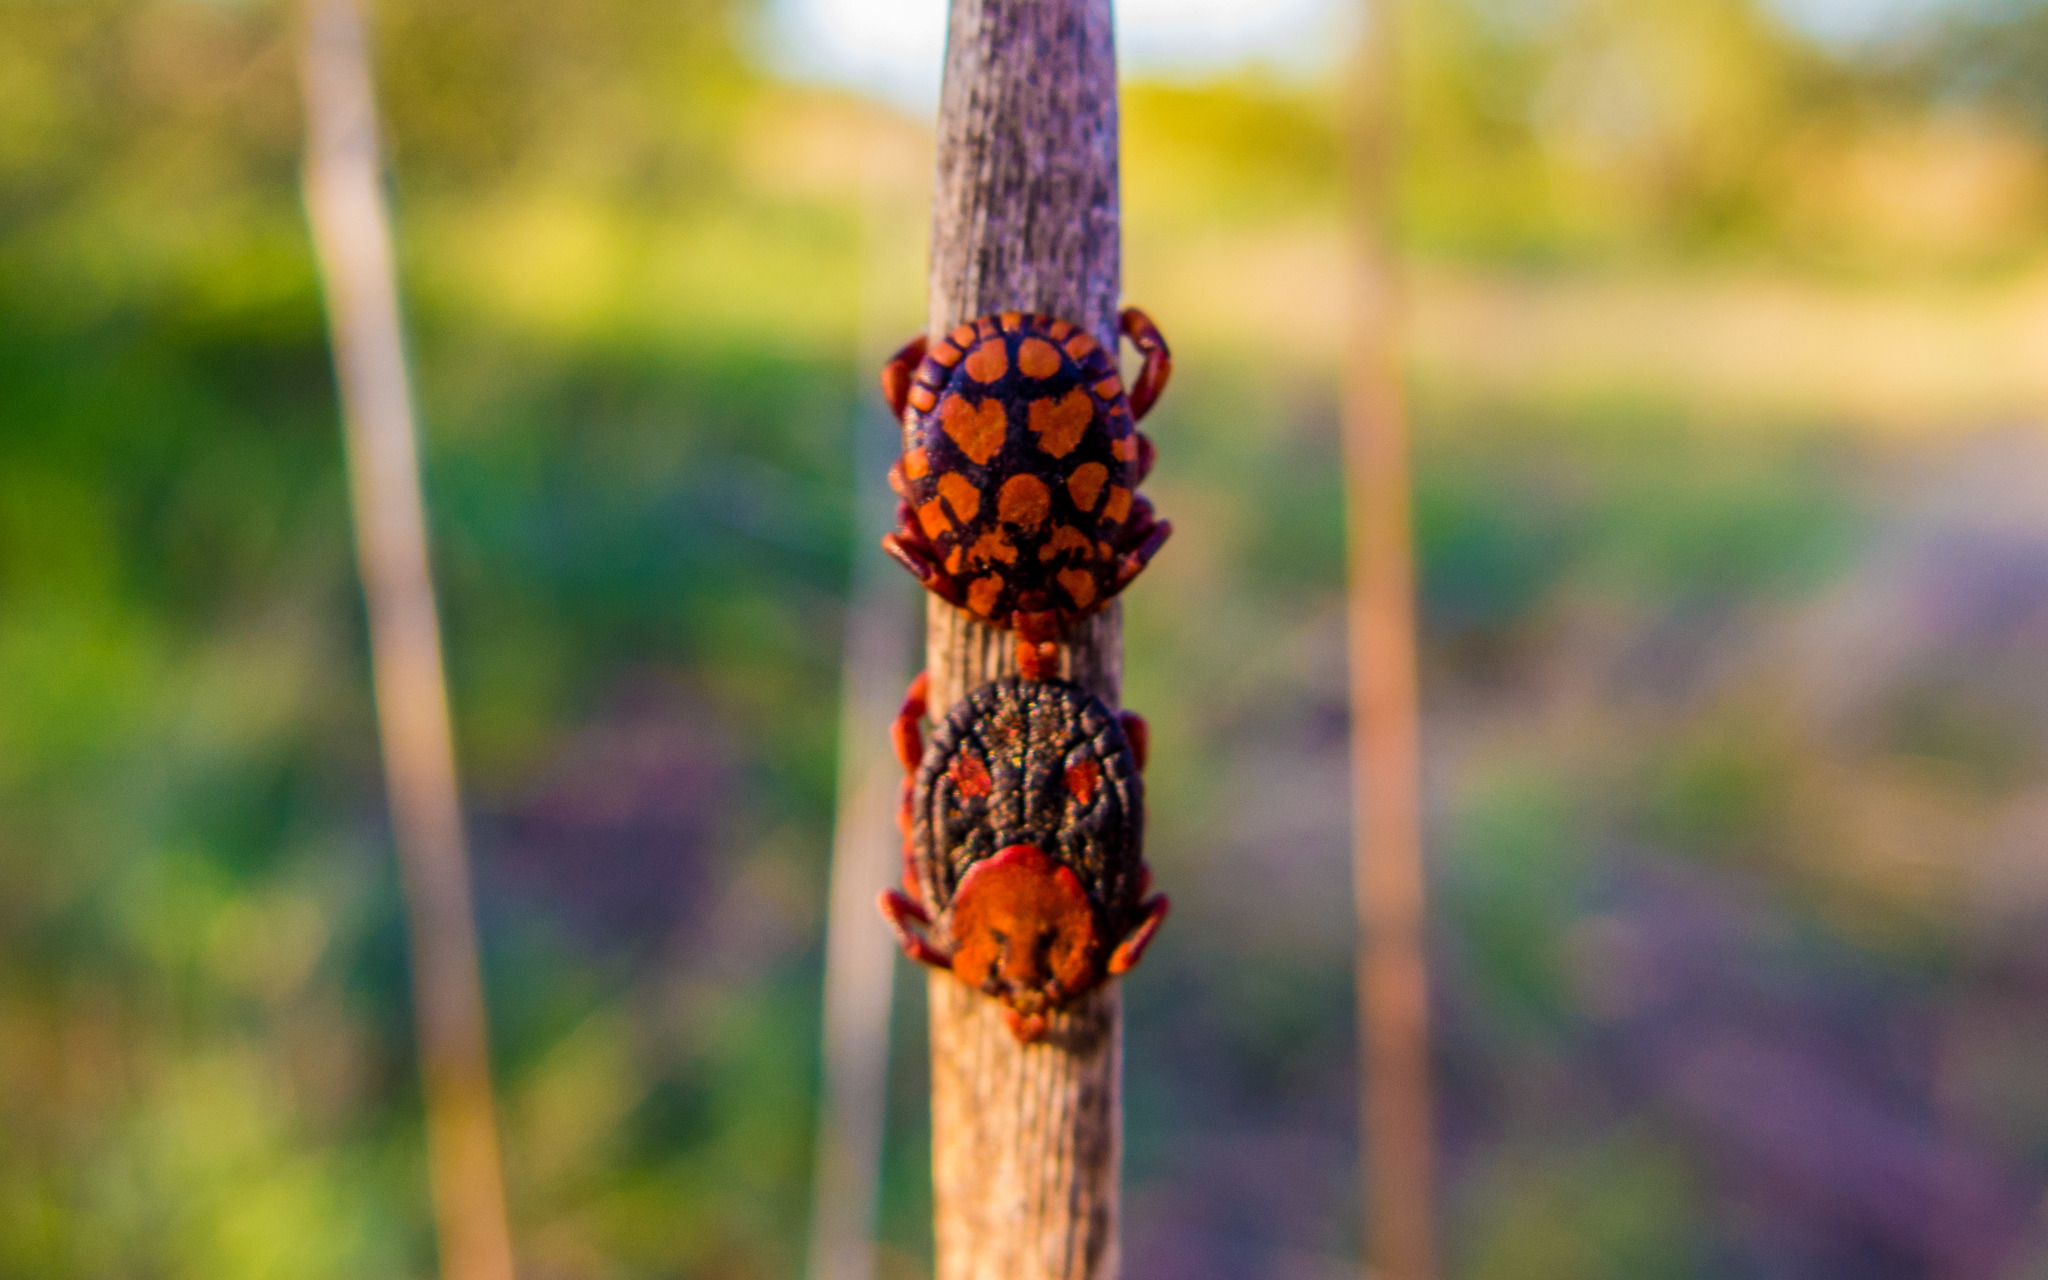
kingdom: Animalia
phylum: Arthropoda
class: Arachnida
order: Ixodida
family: Ixodidae
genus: Dermacentor
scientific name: Dermacentor rhinocerinus
